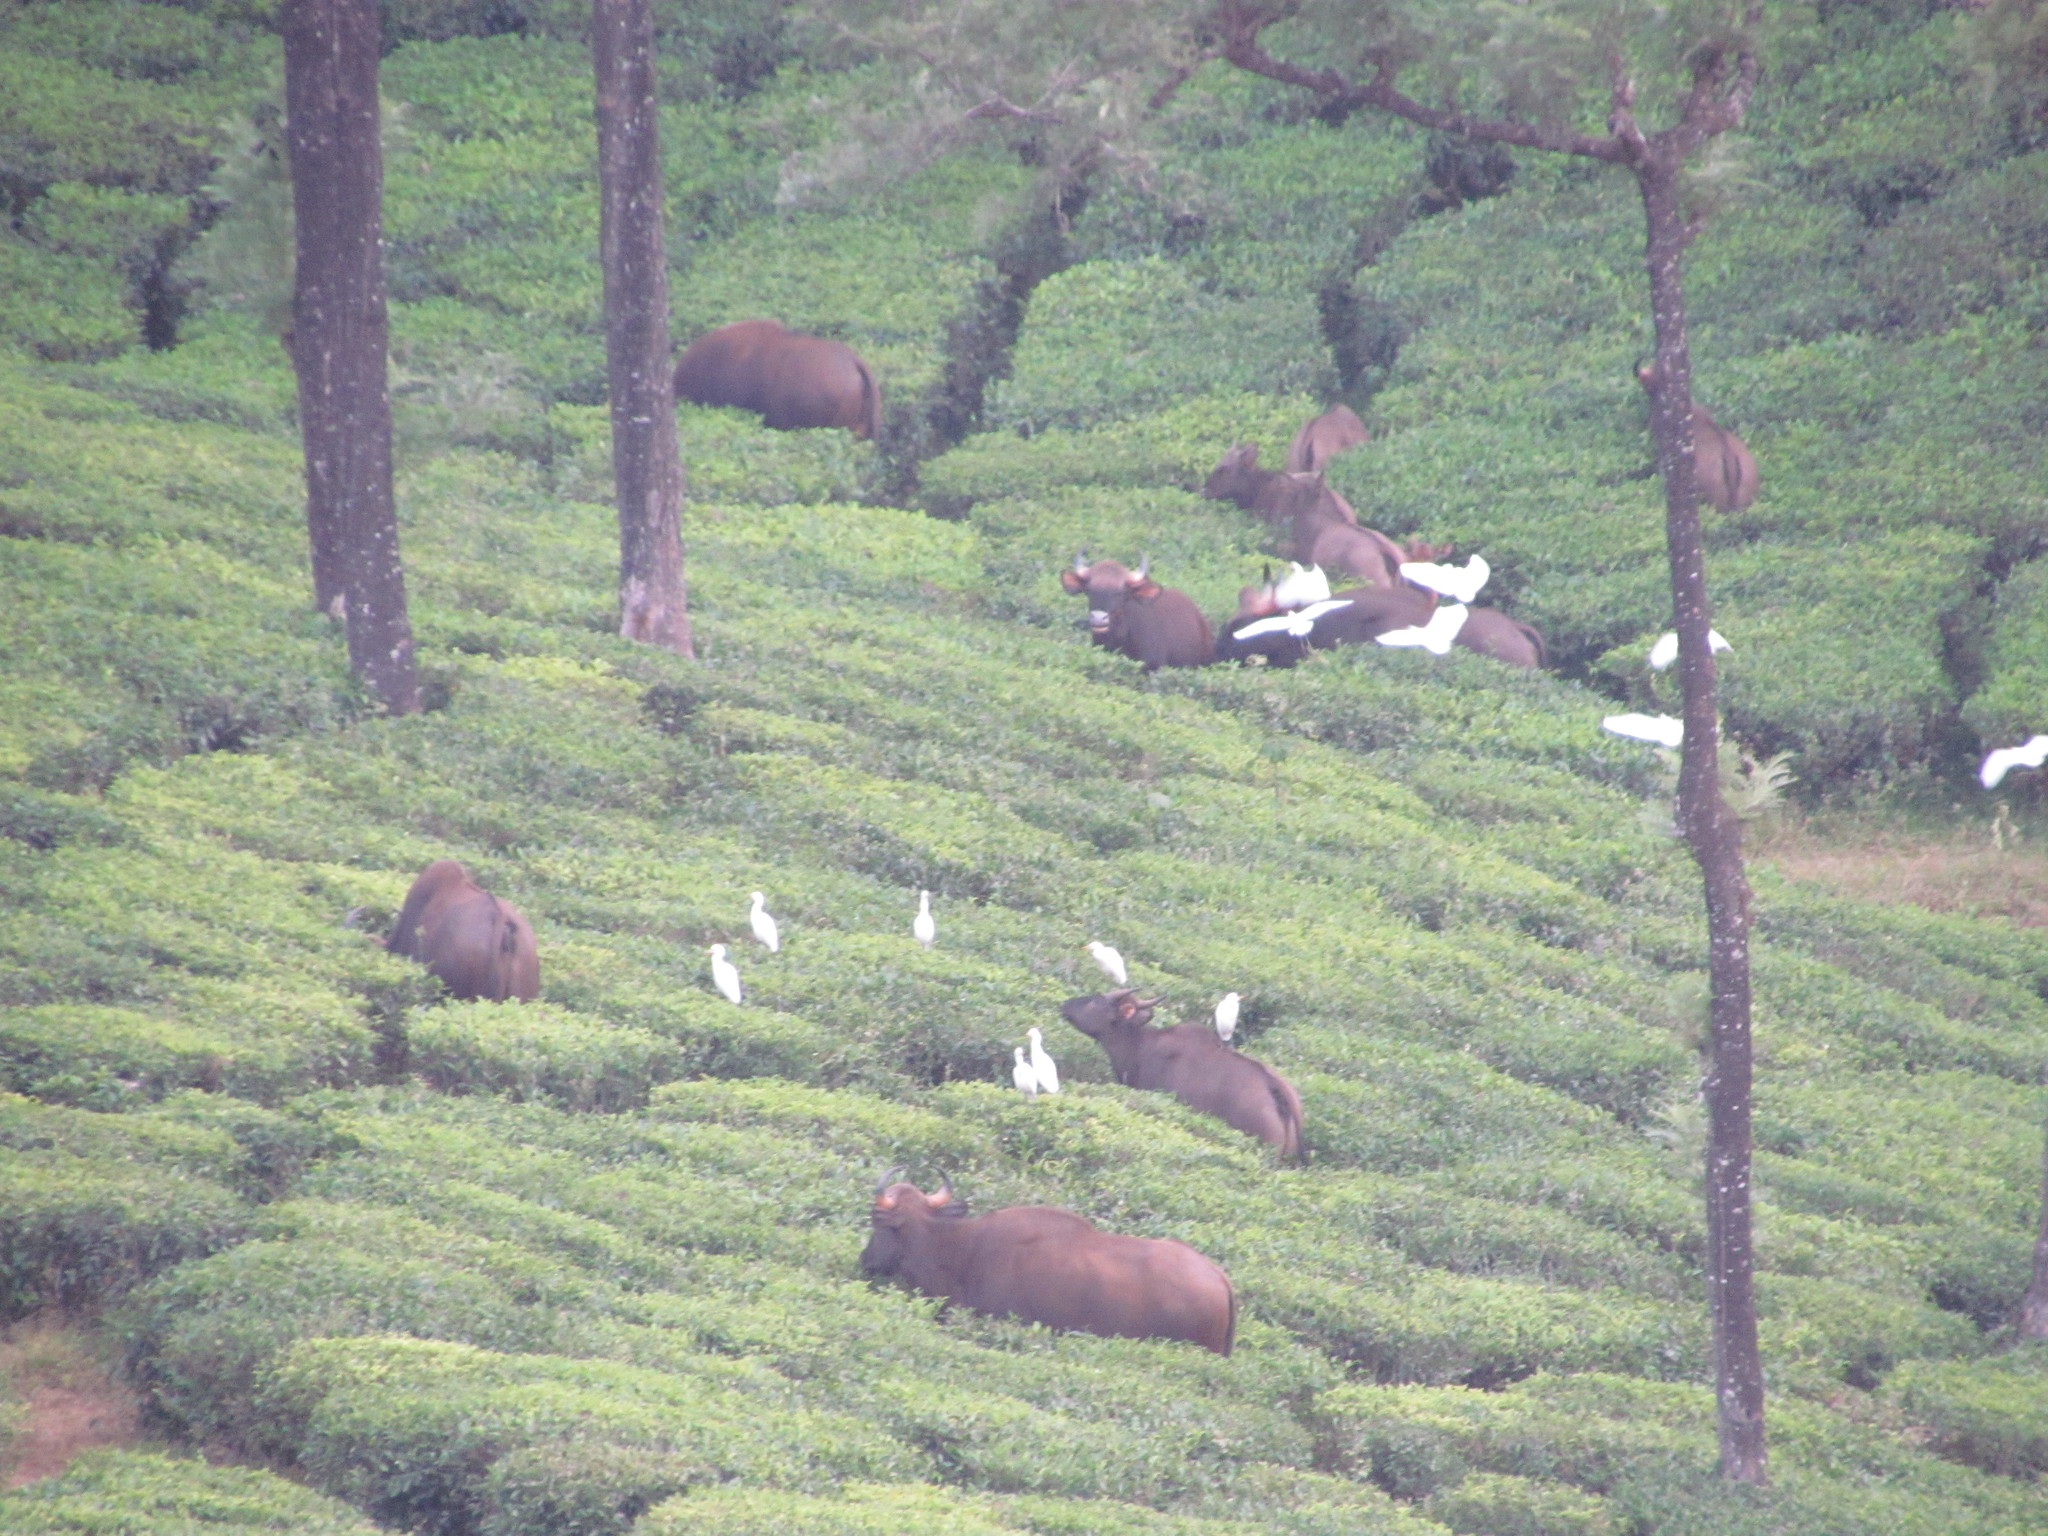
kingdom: Animalia
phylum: Chordata
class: Mammalia
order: Artiodactyla
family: Bovidae
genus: Bos
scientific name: Bos frontalis
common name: Gaur
